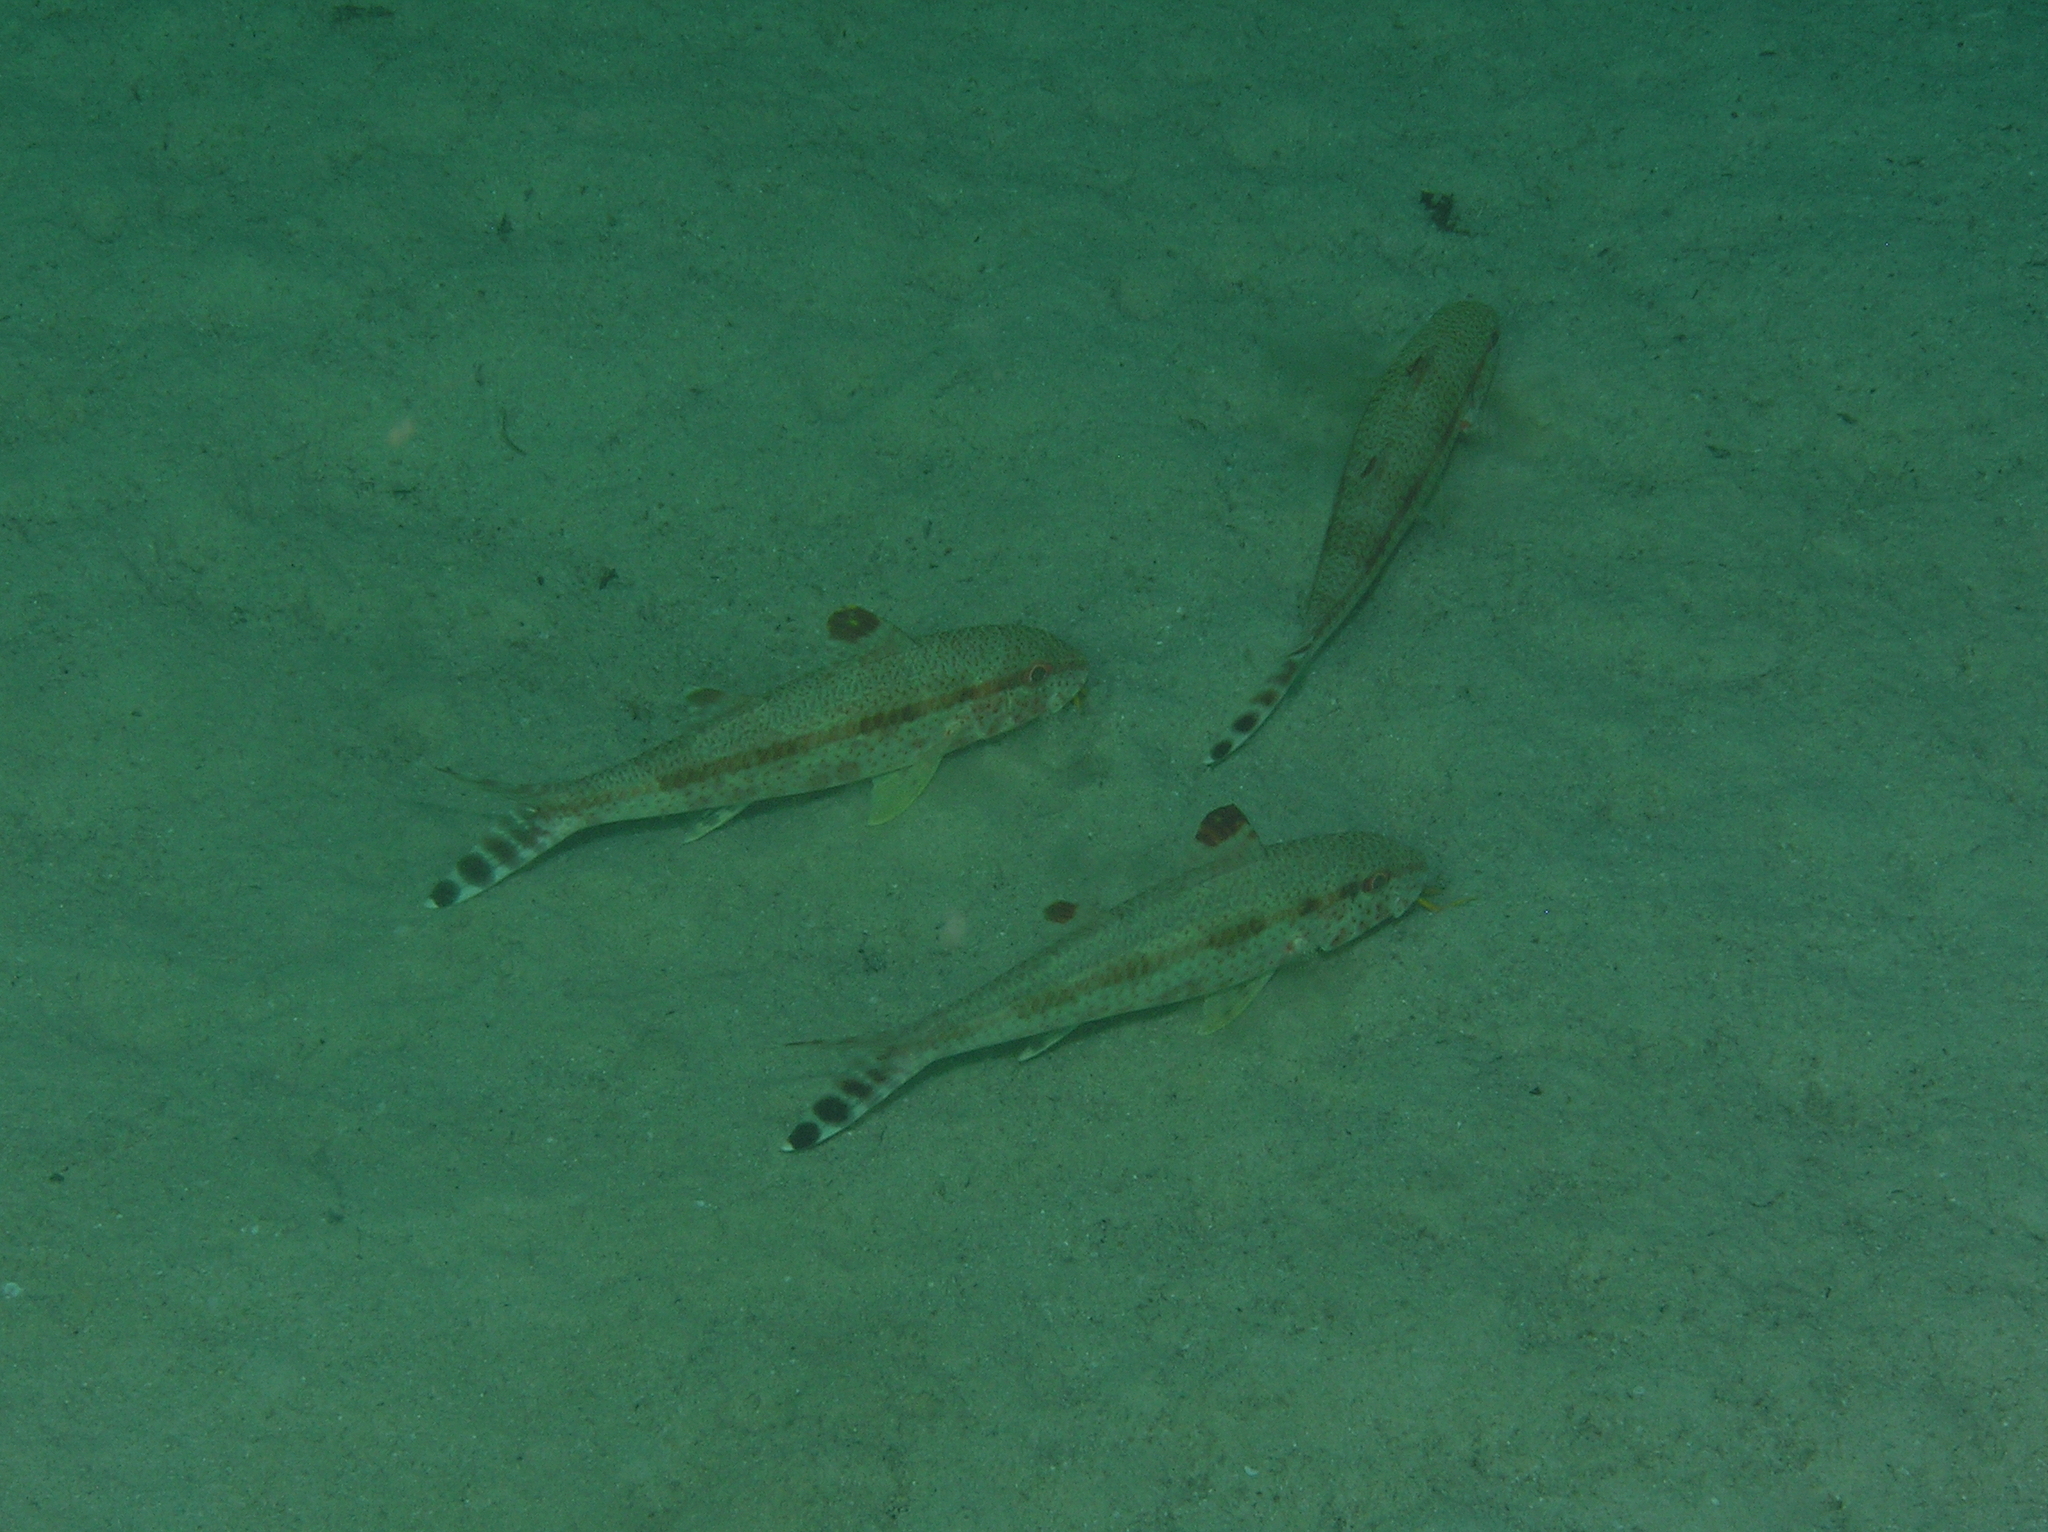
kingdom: Animalia
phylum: Chordata
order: Perciformes
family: Mullidae
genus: Upeneus
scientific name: Upeneus tragula
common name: Freckled goatfish
